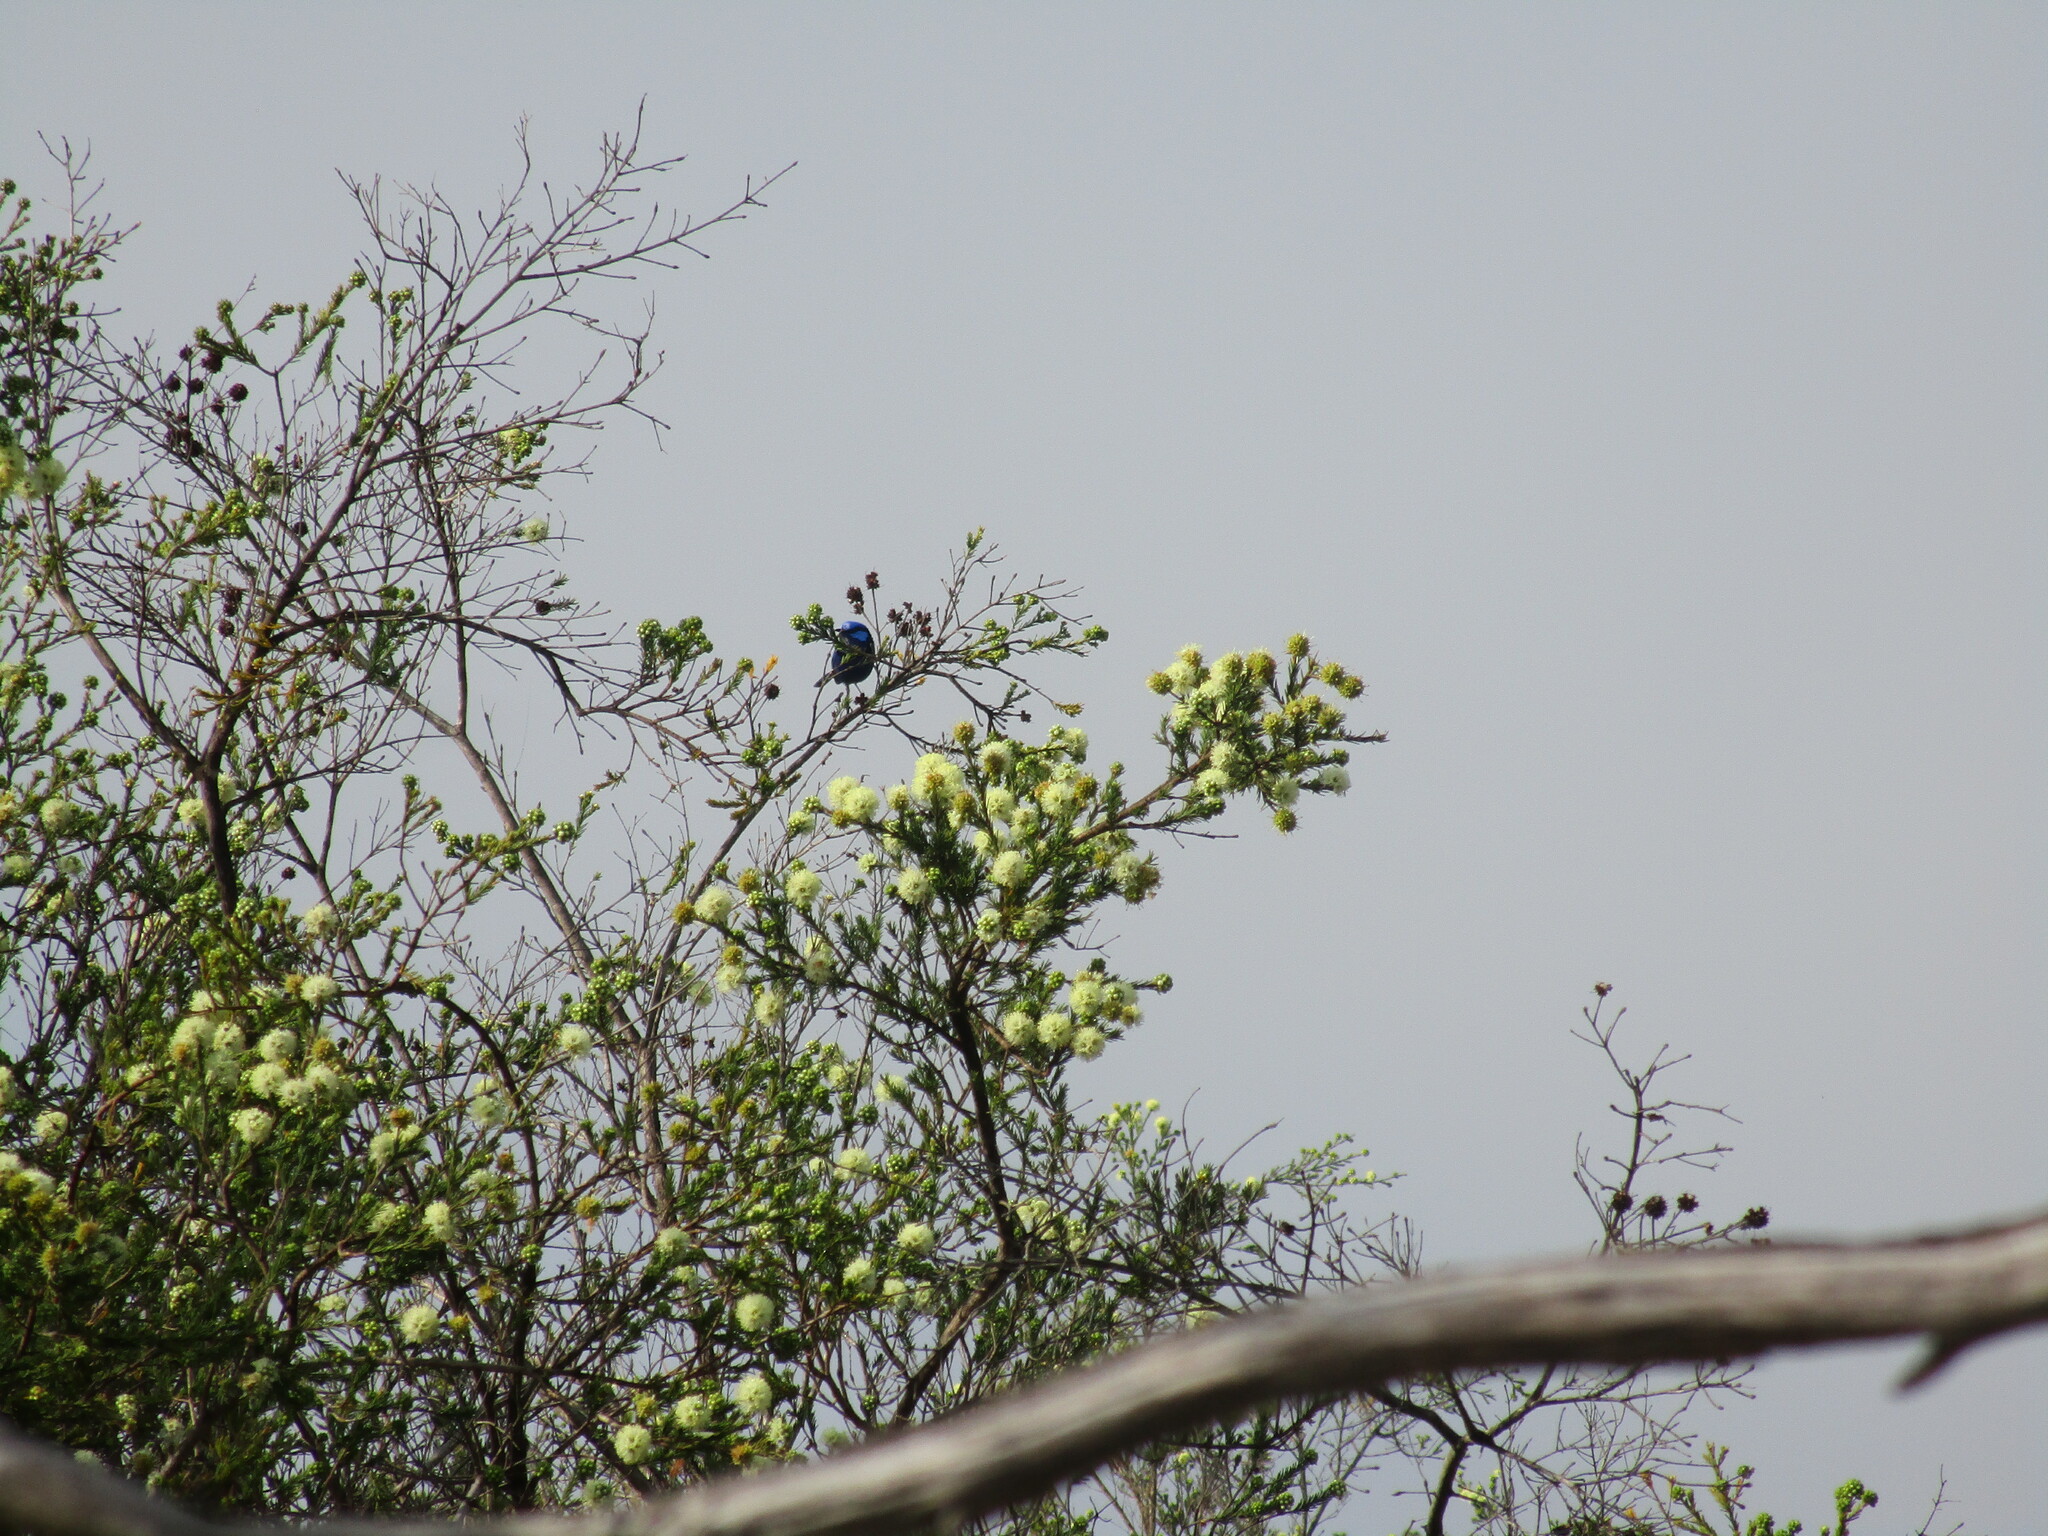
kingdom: Animalia
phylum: Chordata
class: Aves
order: Passeriformes
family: Maluridae
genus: Malurus
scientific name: Malurus splendens
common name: Splendid fairywren
